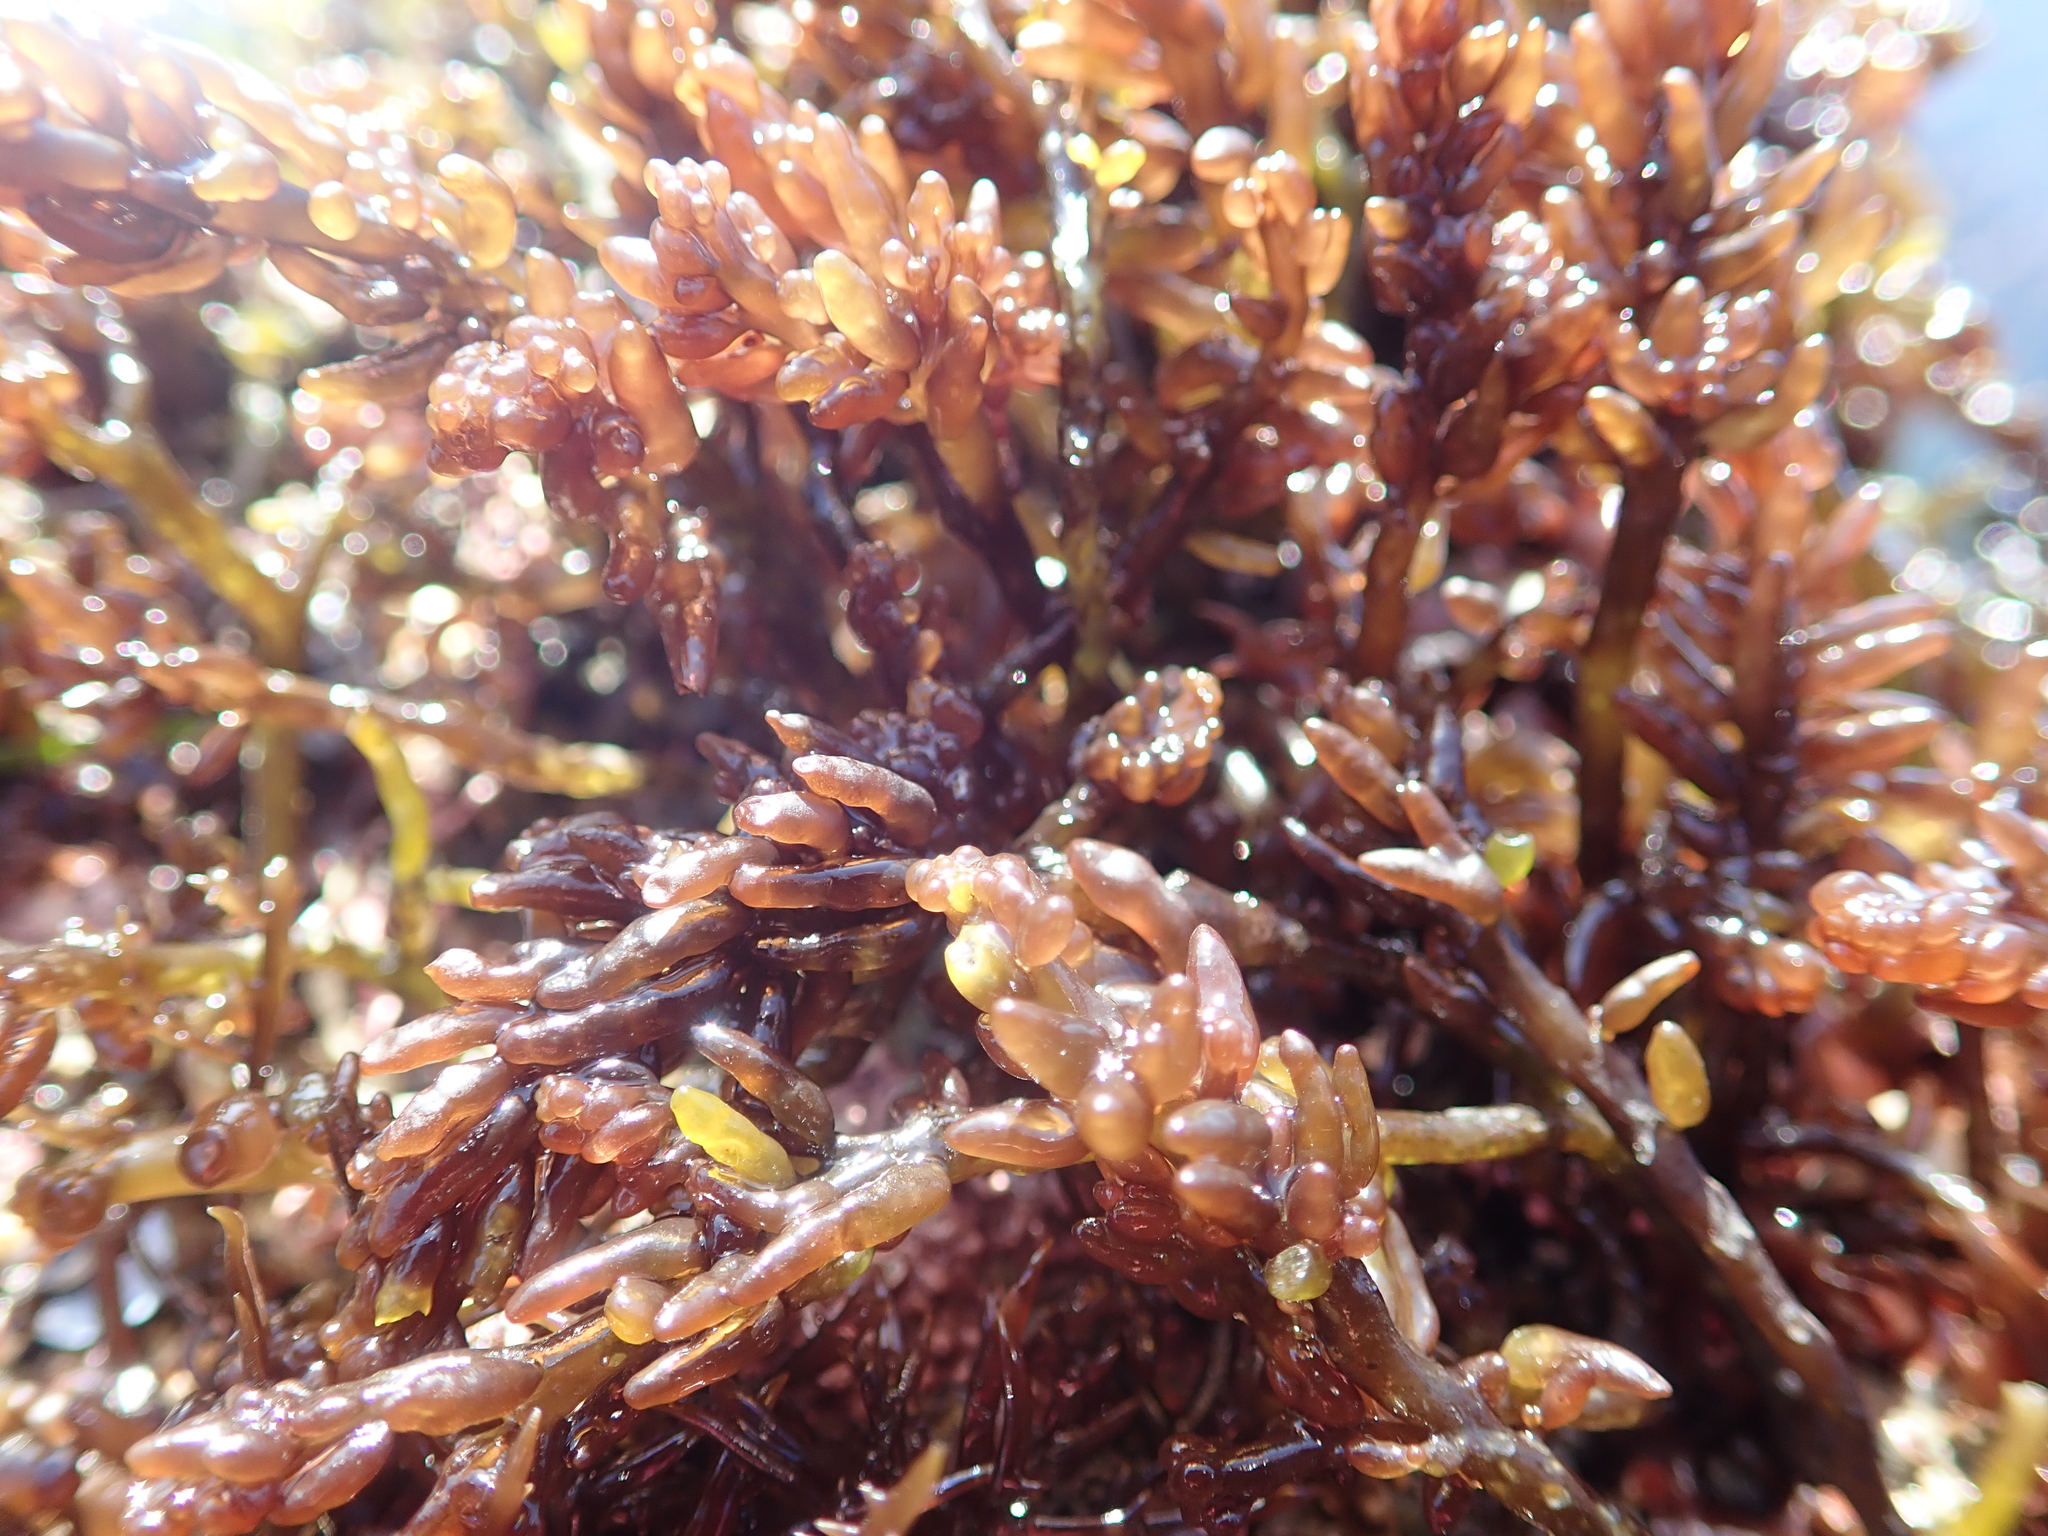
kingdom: Plantae
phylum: Rhodophyta
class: Florideophyceae
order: Rhodymeniales
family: Champiaceae
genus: Neogastroclonium
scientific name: Neogastroclonium subarticulatum
